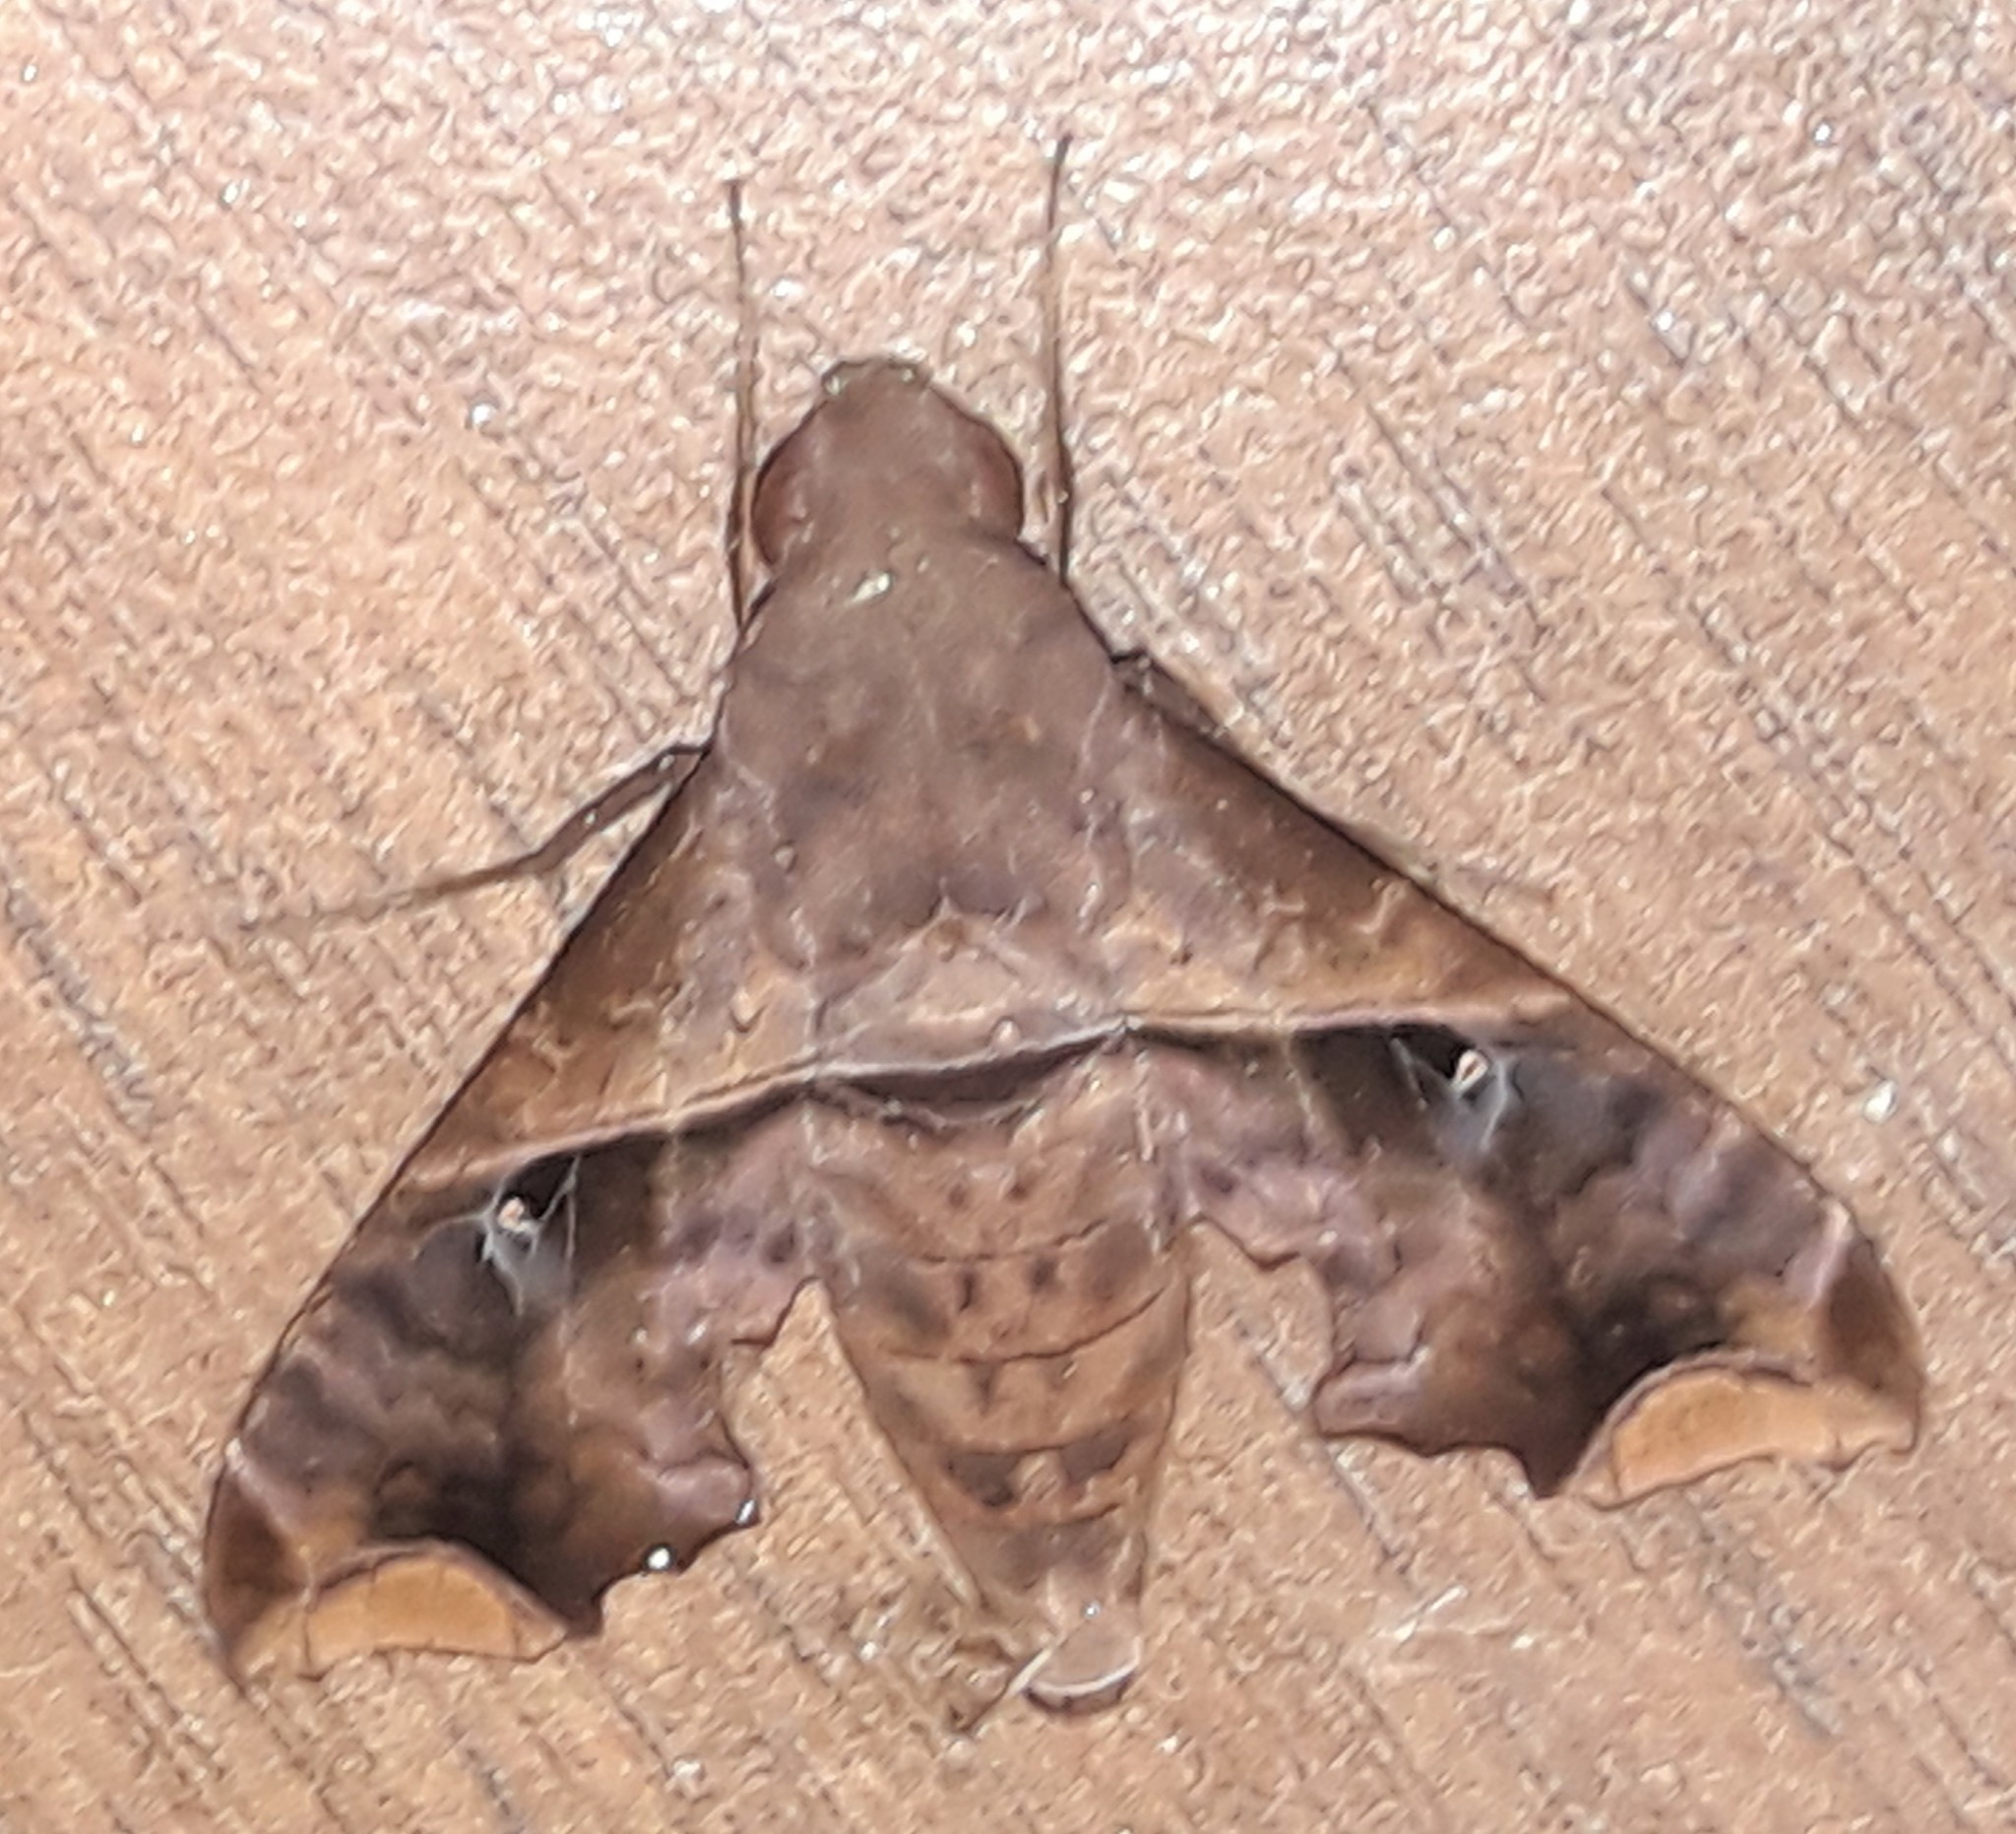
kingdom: Animalia
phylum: Arthropoda
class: Insecta
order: Lepidoptera
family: Sphingidae
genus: Enyo
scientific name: Enyo ocypete
